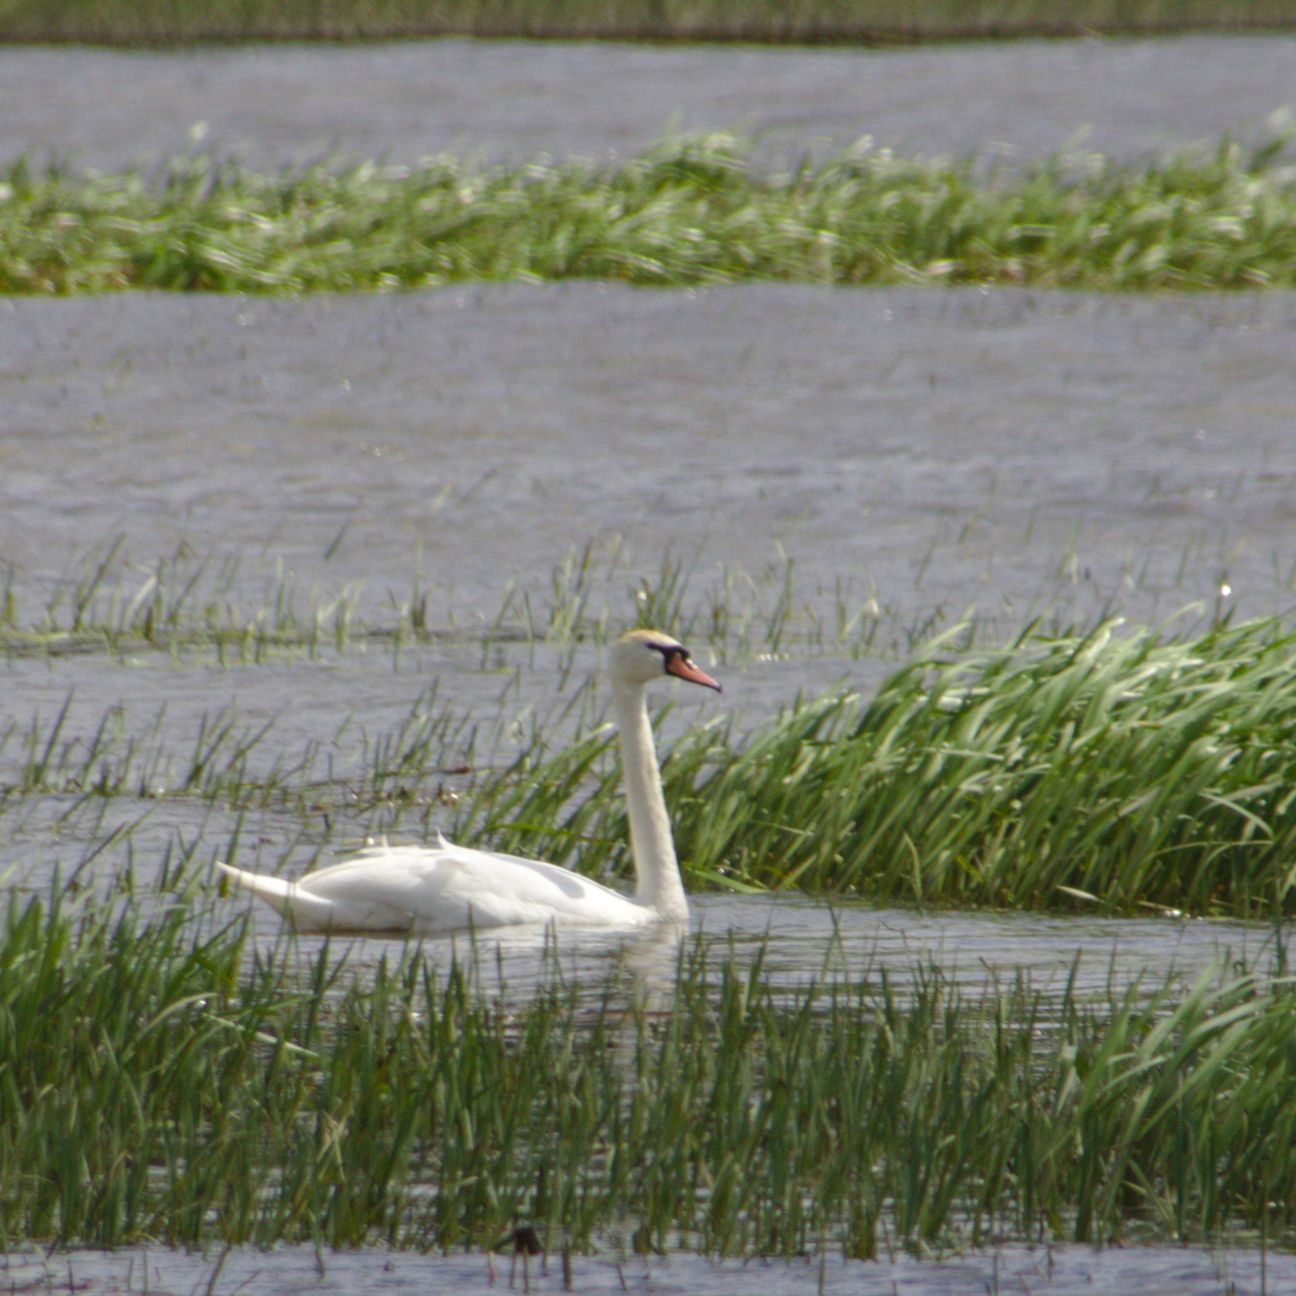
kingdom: Animalia
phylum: Chordata
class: Aves
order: Anseriformes
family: Anatidae
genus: Cygnus
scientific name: Cygnus olor
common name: Mute swan
